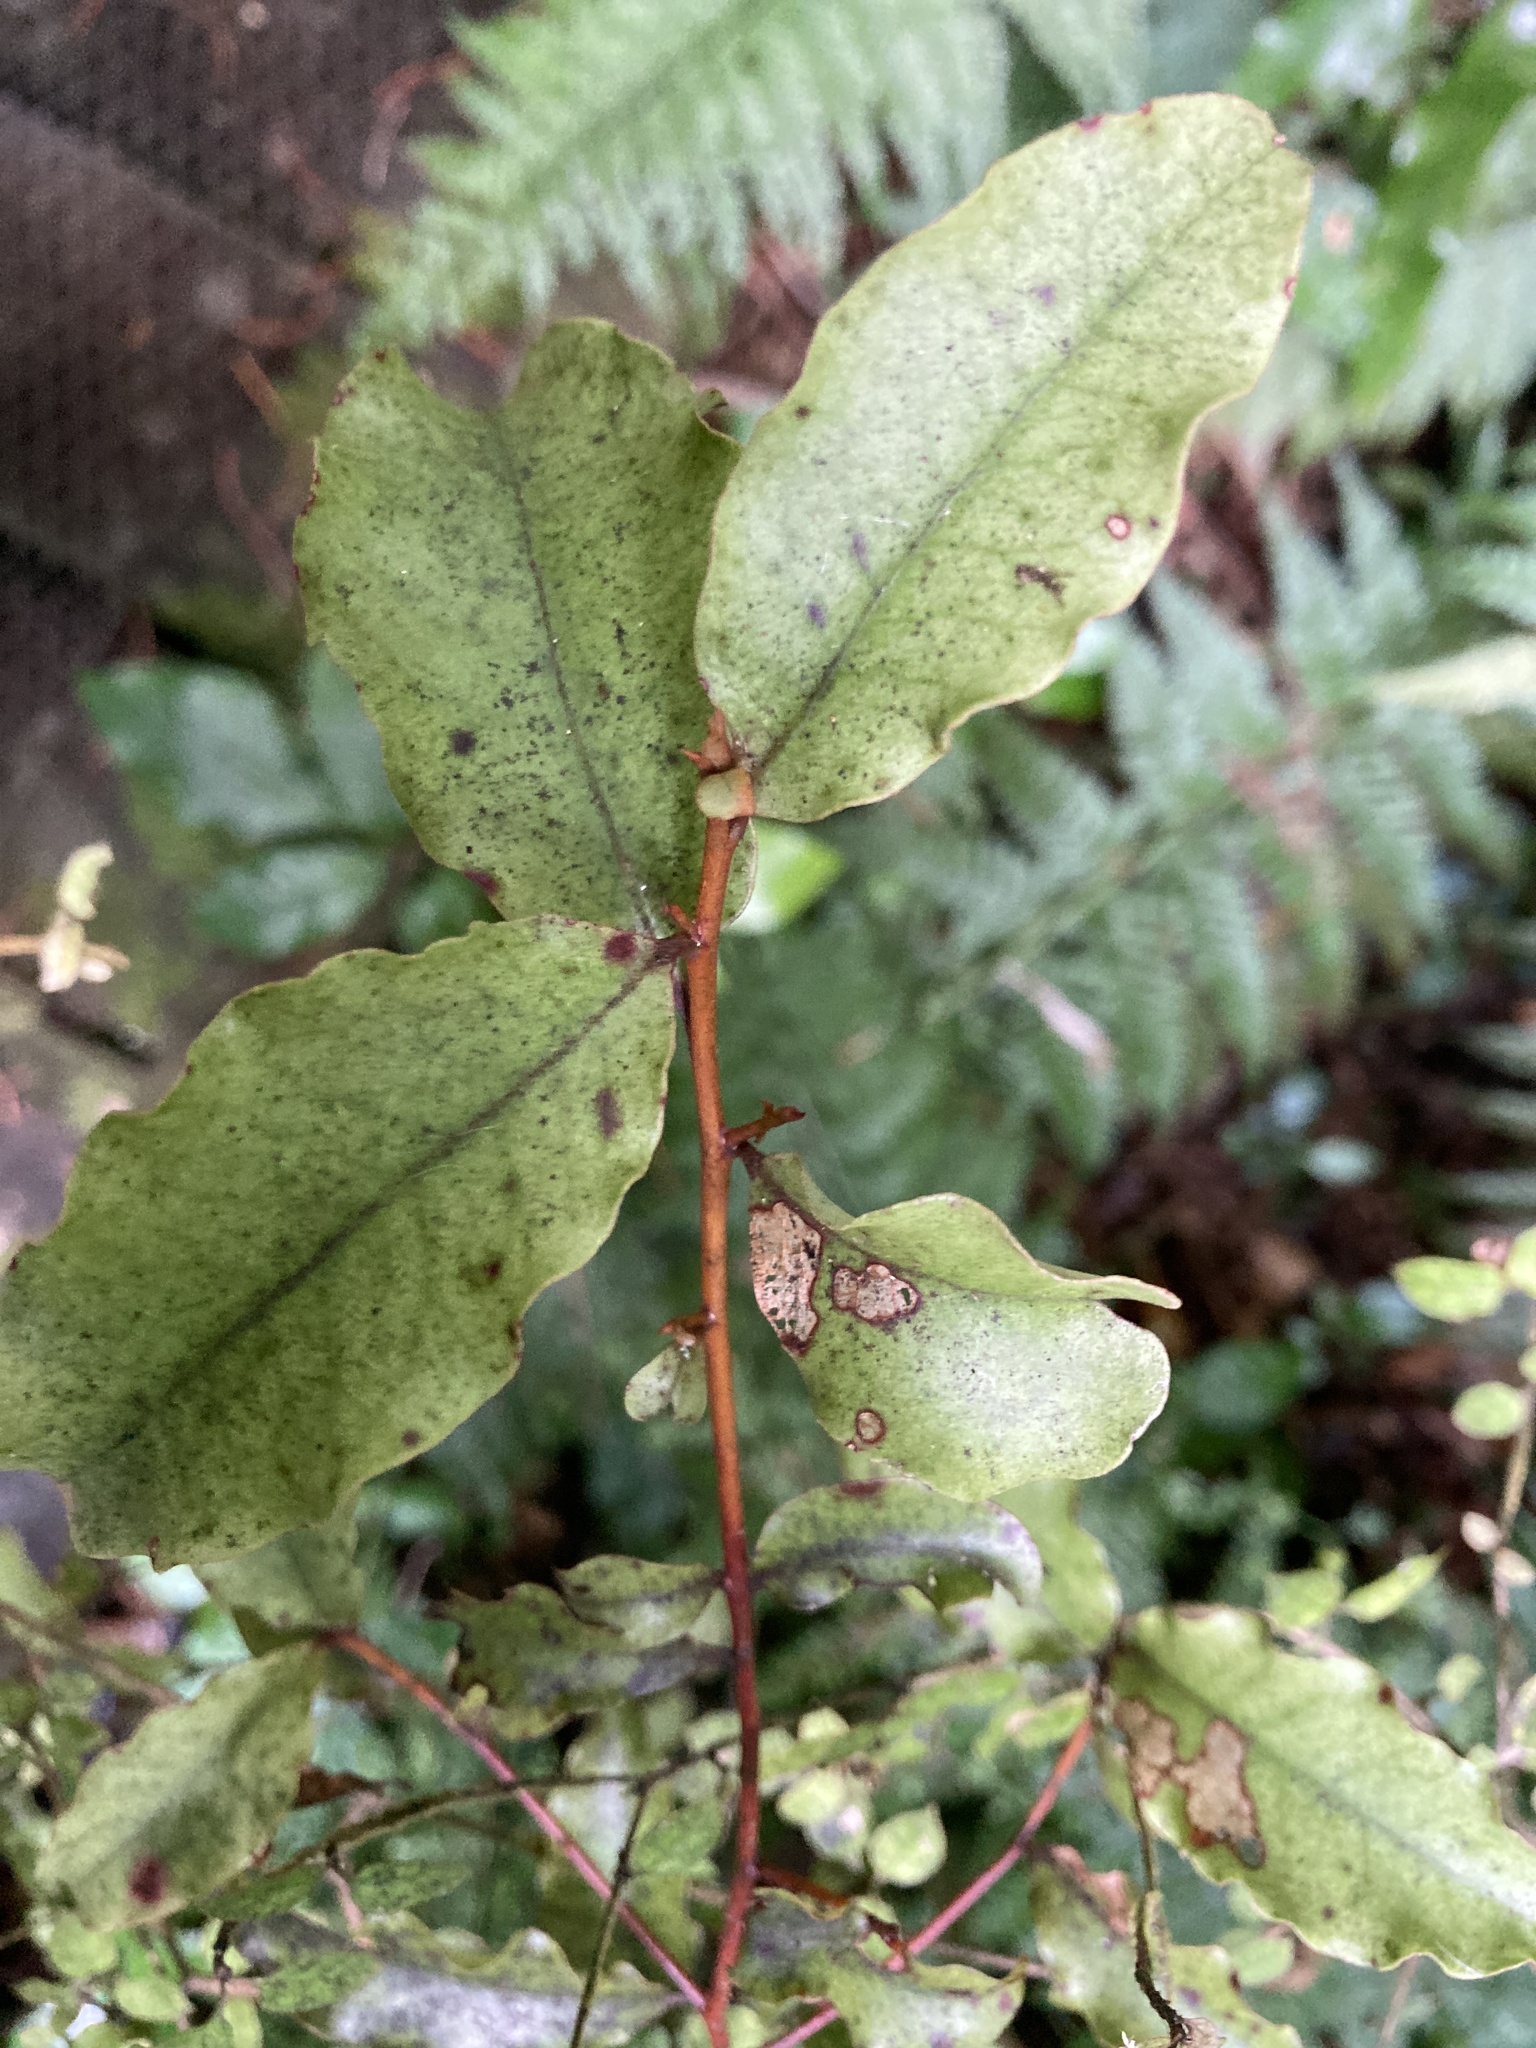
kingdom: Plantae
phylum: Tracheophyta
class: Magnoliopsida
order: Ericales
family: Primulaceae
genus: Myrsine
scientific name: Myrsine australis
